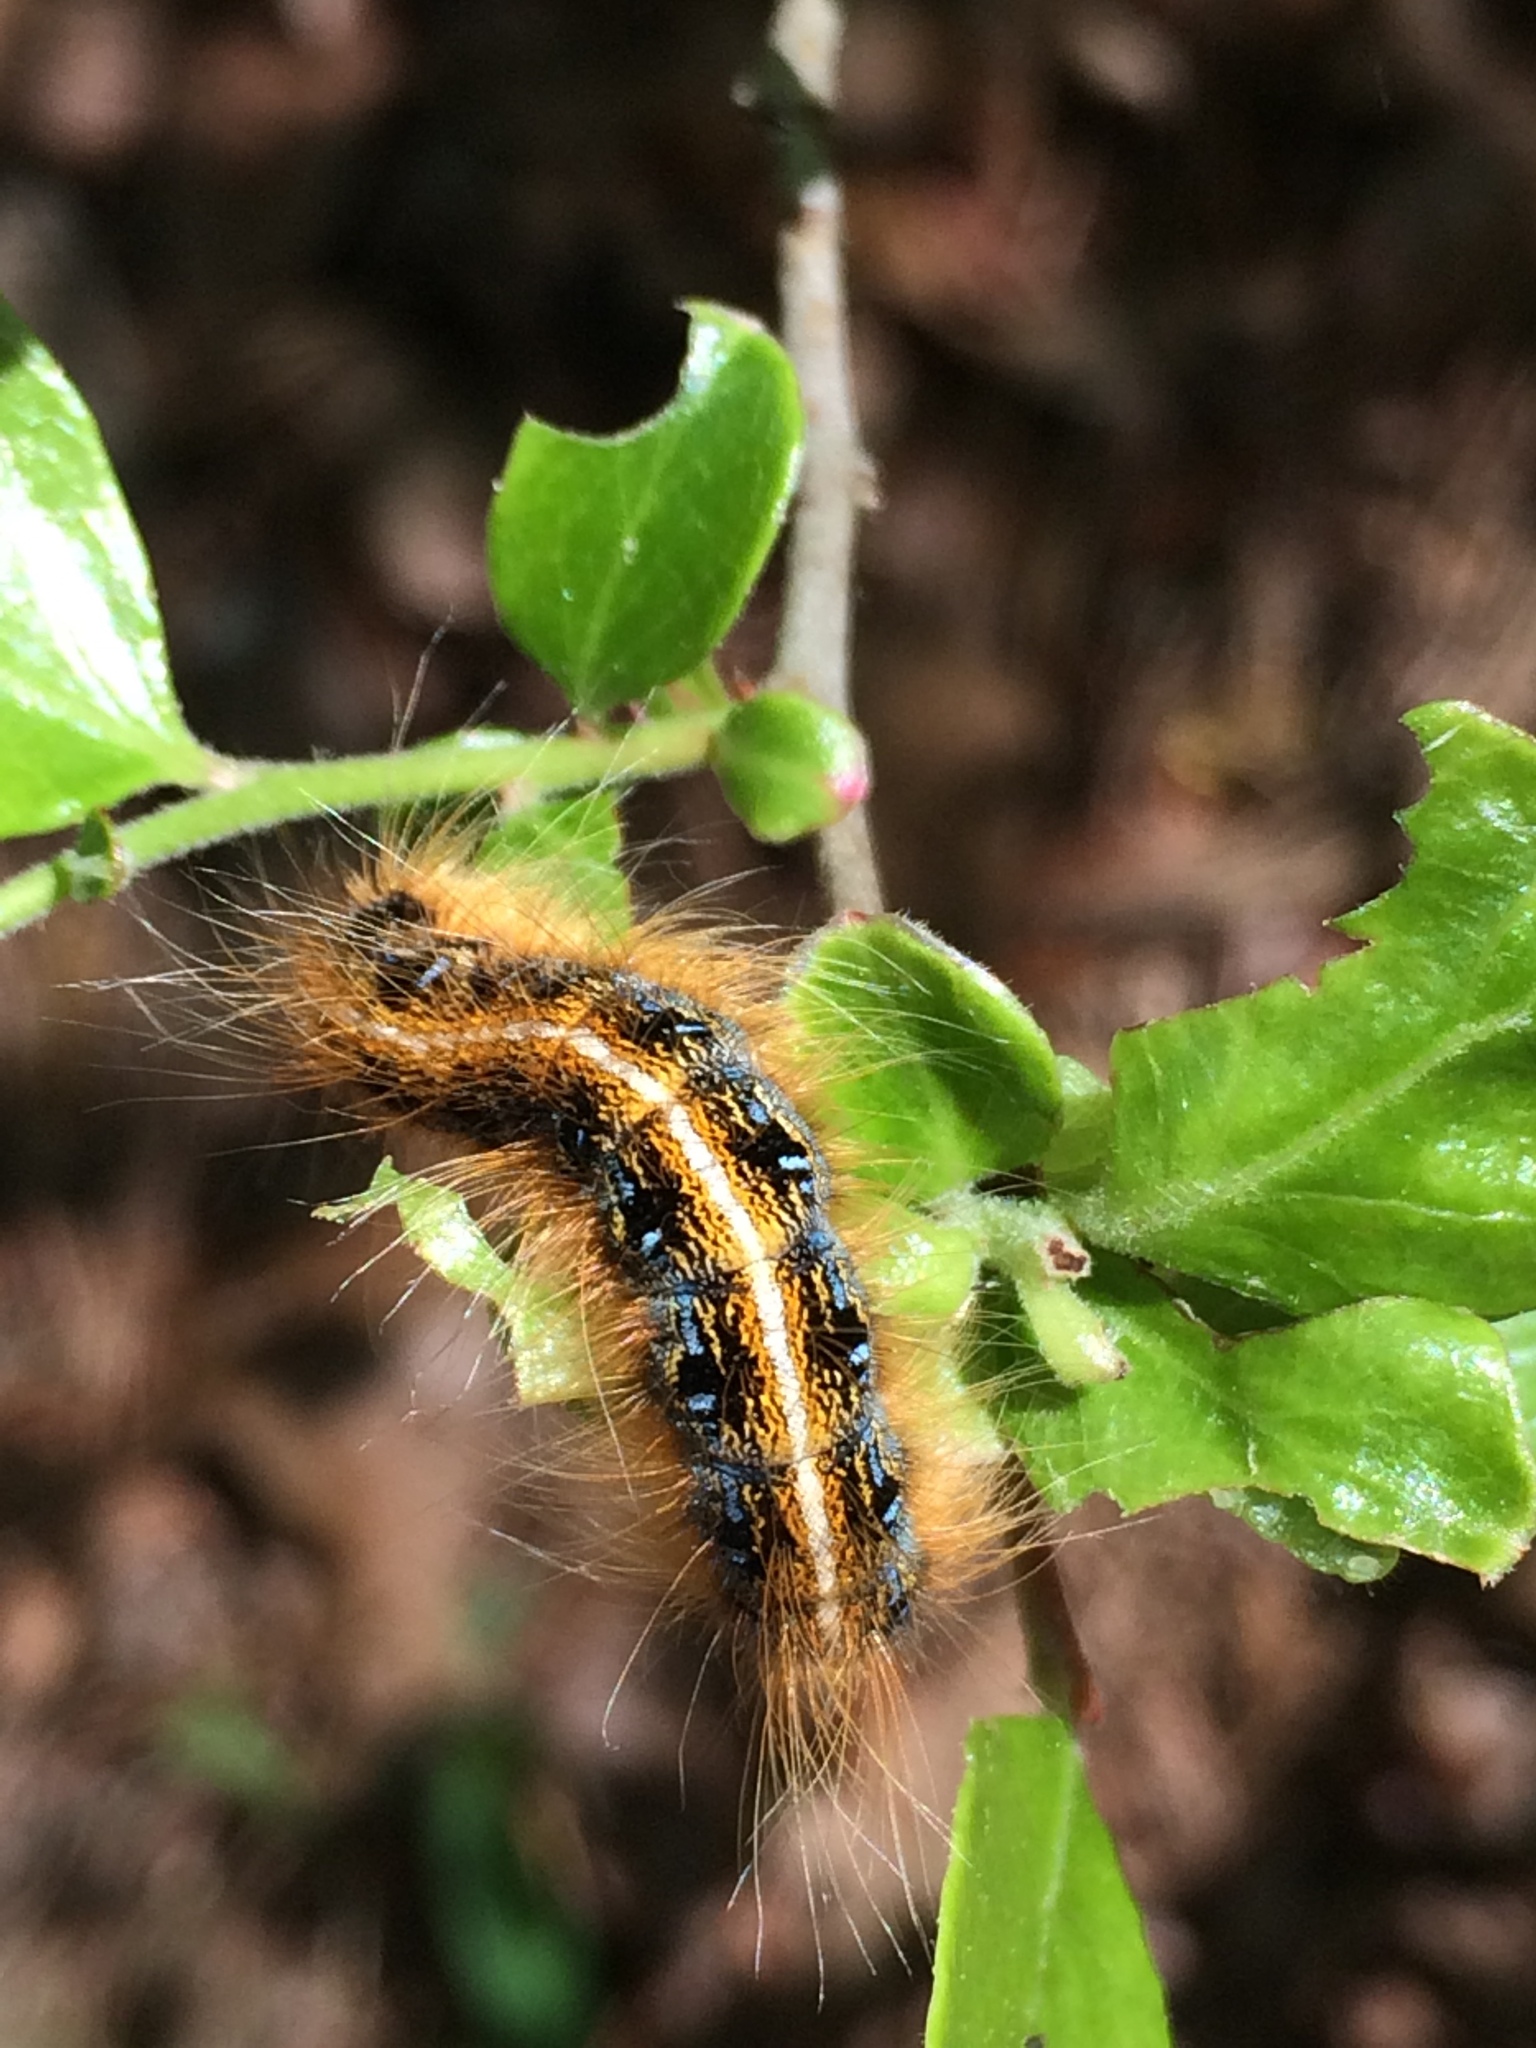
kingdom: Animalia
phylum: Arthropoda
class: Insecta
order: Lepidoptera
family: Lasiocampidae
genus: Malacosoma
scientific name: Malacosoma americana
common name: Eastern tent caterpillar moth
